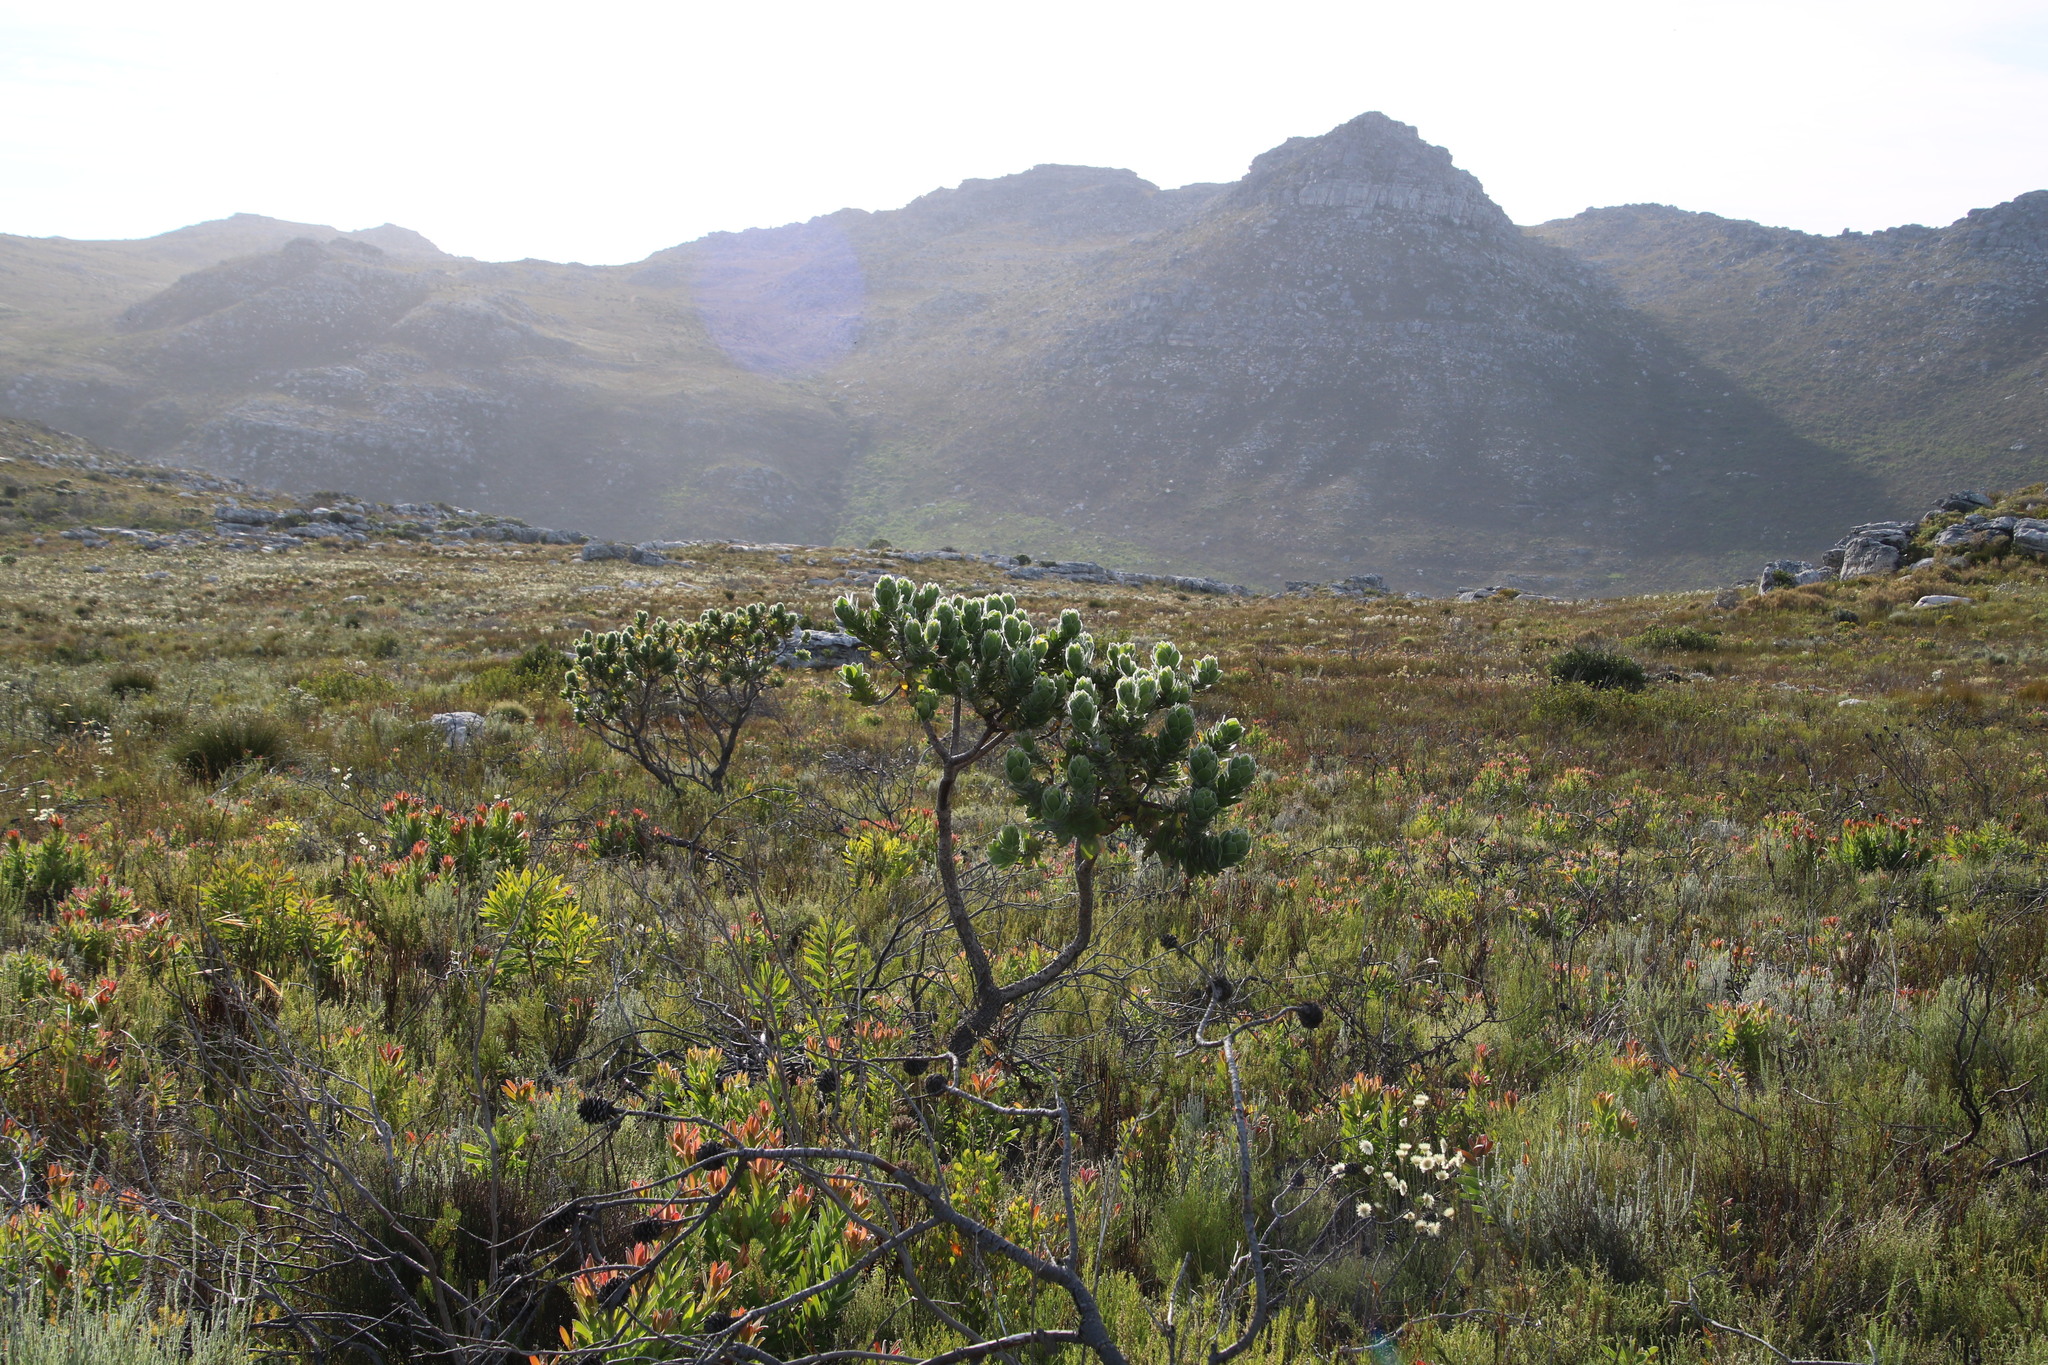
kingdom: Plantae
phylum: Tracheophyta
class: Magnoliopsida
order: Proteales
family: Proteaceae
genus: Leucospermum
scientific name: Leucospermum conocarpodendron
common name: Tree pincushion
